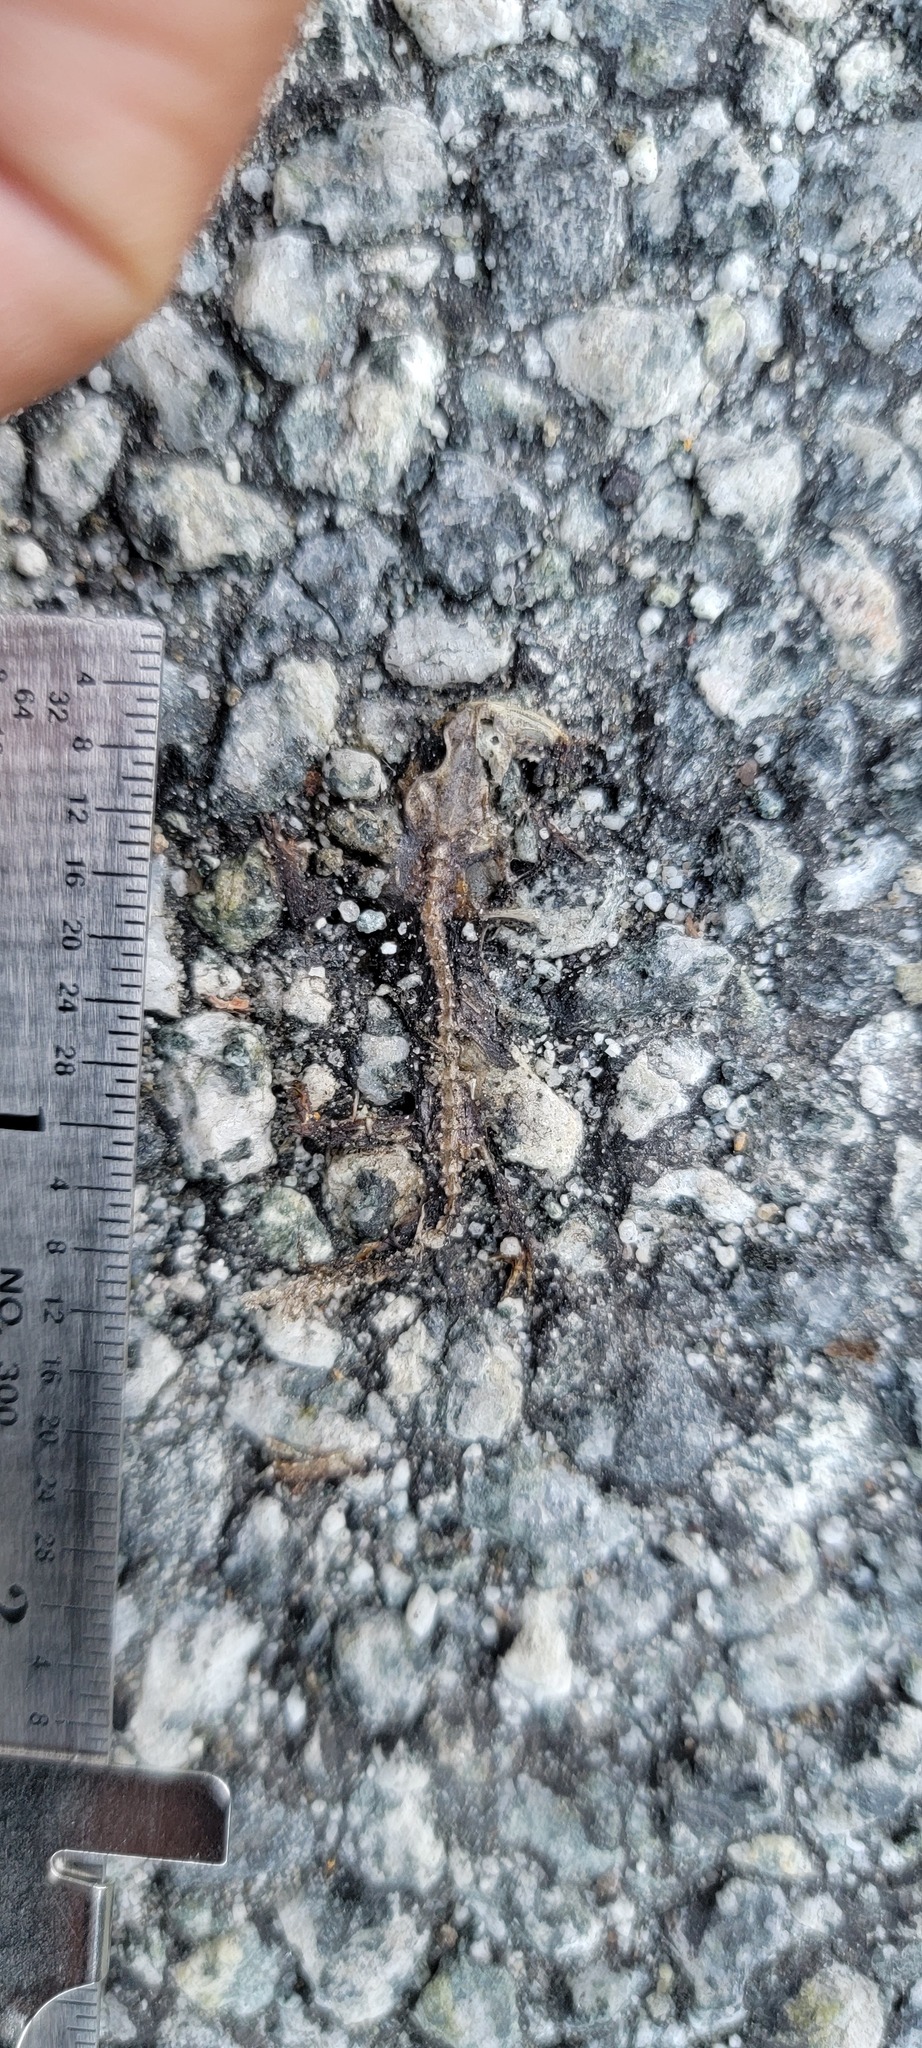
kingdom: Animalia
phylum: Chordata
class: Amphibia
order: Caudata
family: Salamandridae
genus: Taricha
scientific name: Taricha
